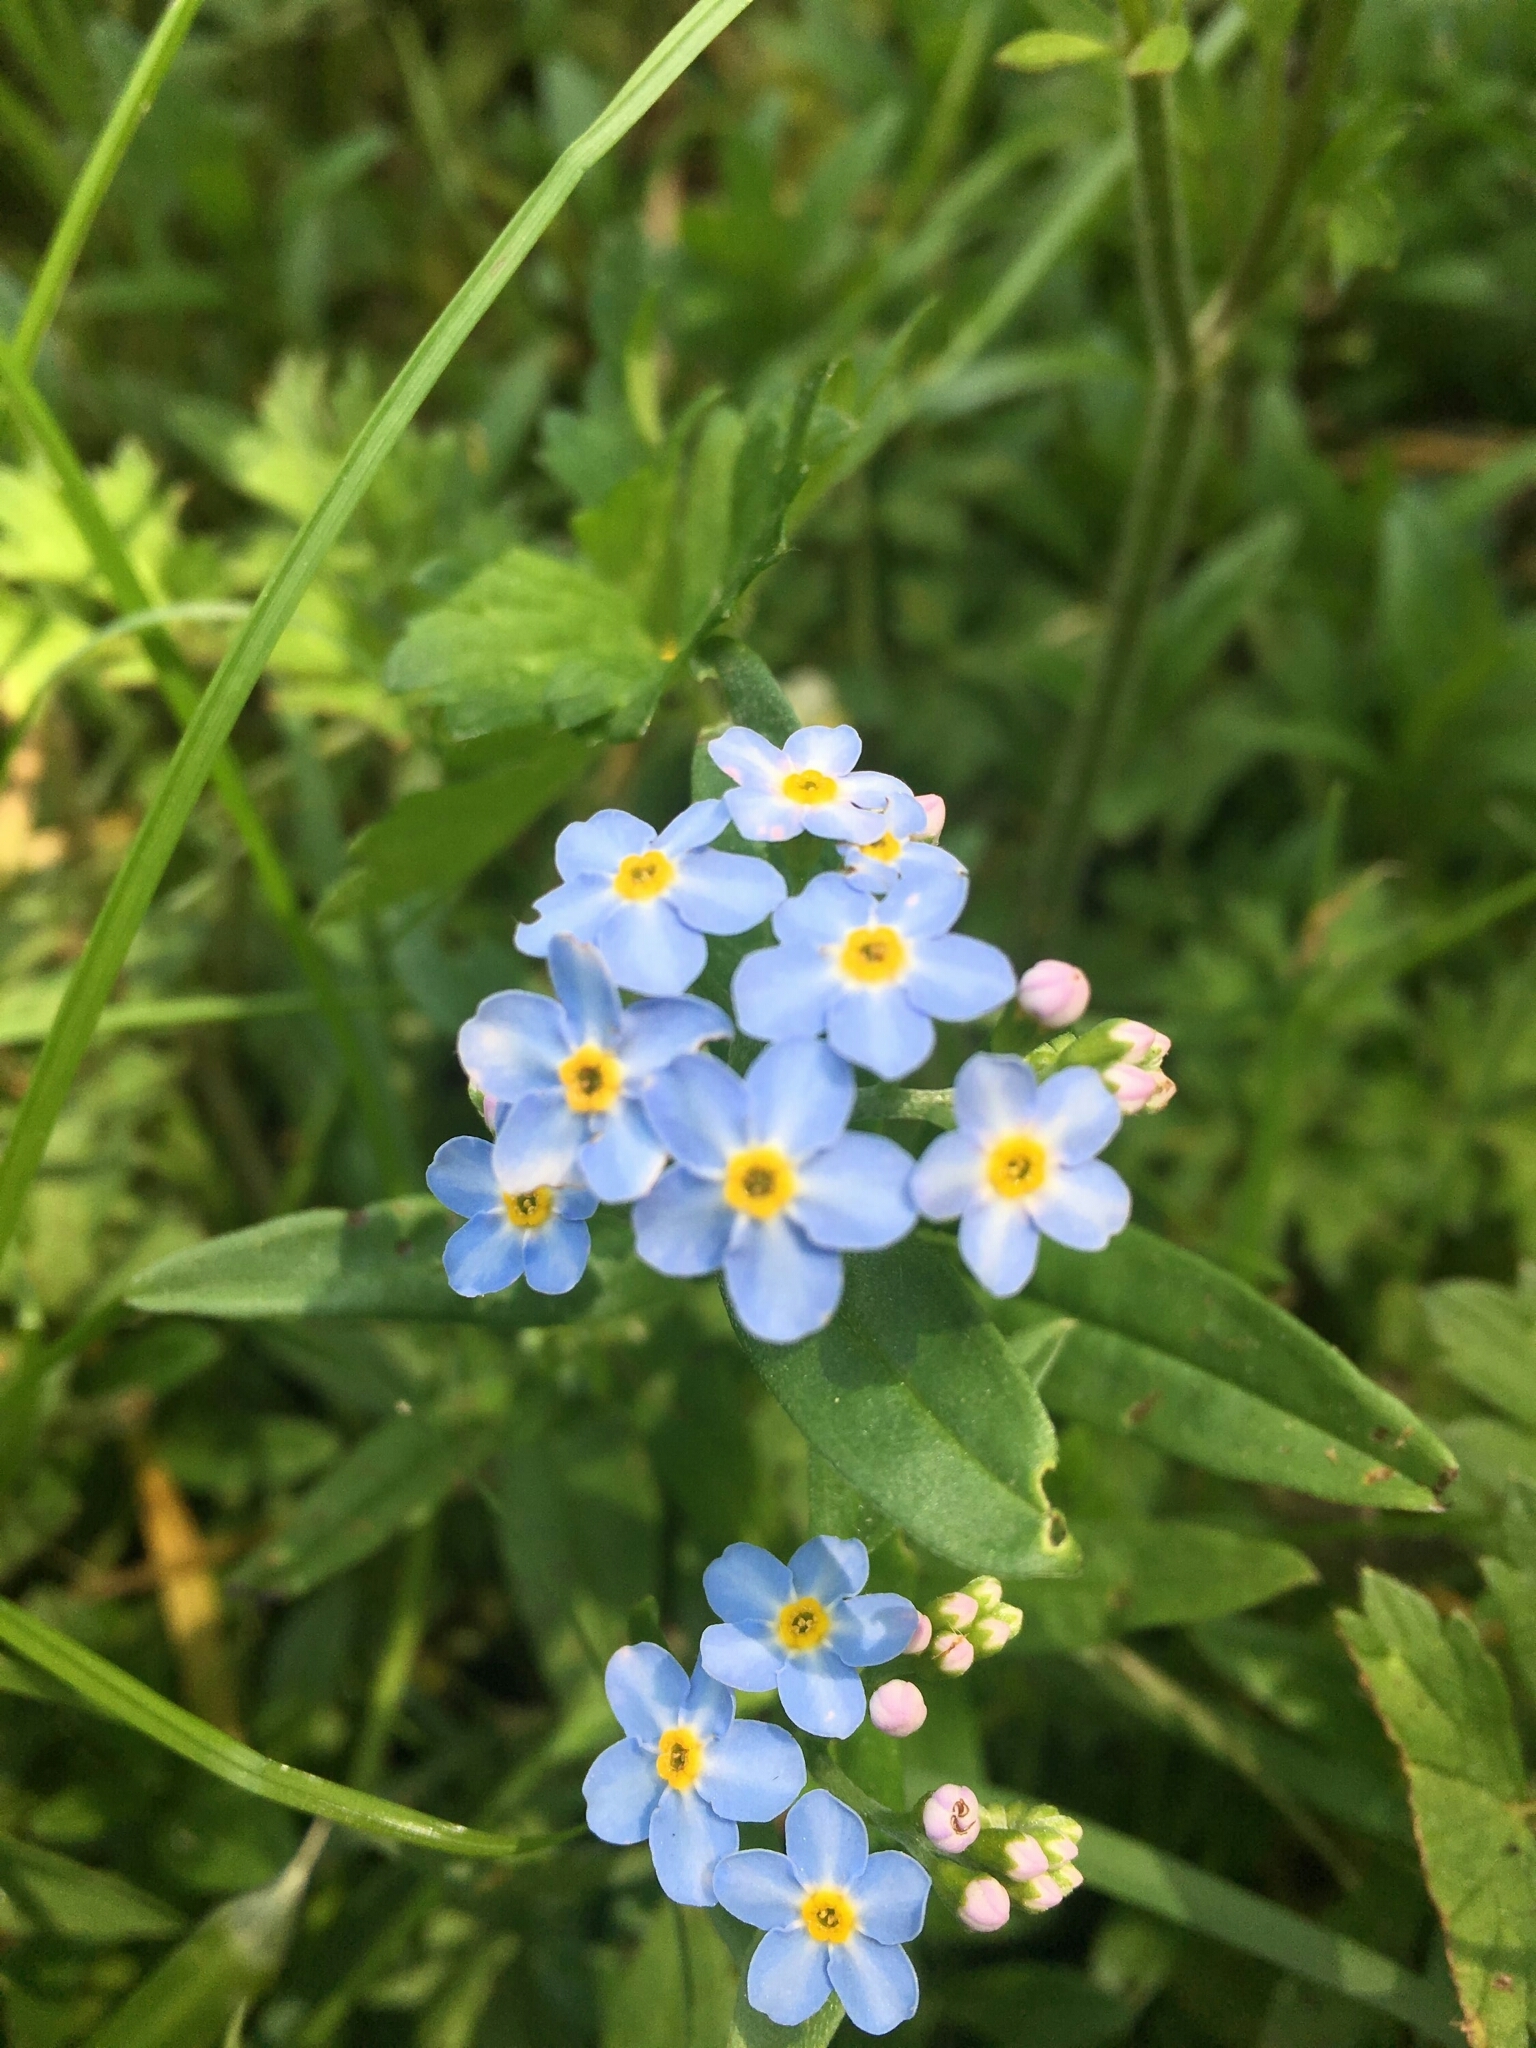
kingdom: Plantae
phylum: Tracheophyta
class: Magnoliopsida
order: Boraginales
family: Boraginaceae
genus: Myosotis
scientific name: Myosotis scorpioides
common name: Water forget-me-not
